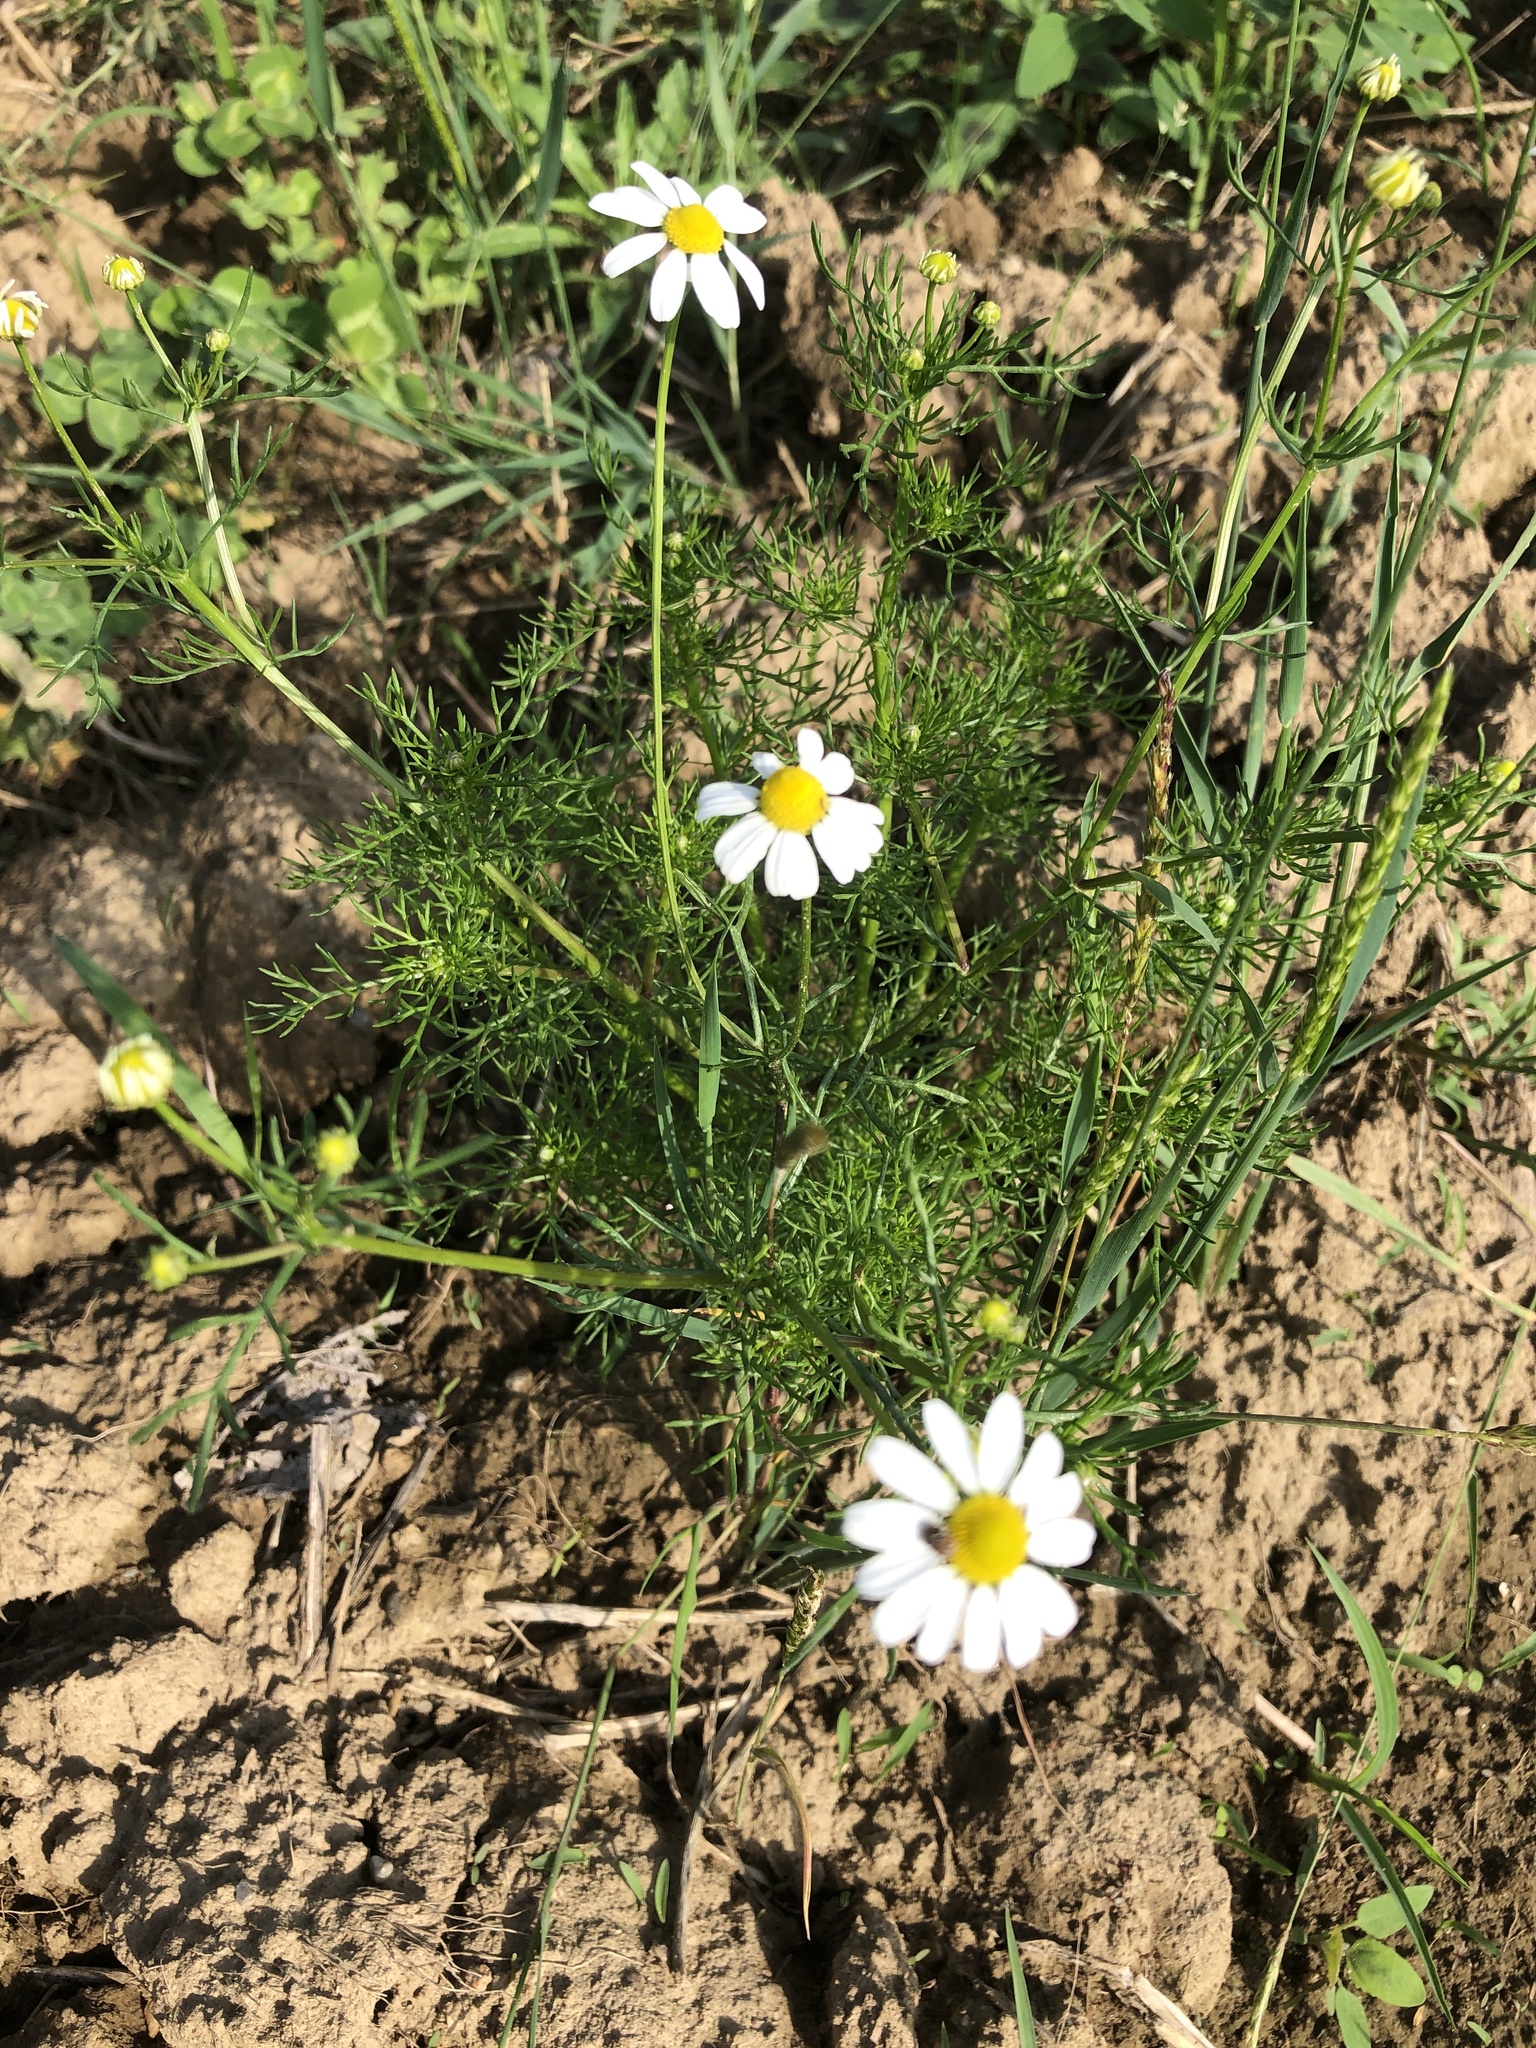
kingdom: Plantae
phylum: Tracheophyta
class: Magnoliopsida
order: Asterales
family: Asteraceae
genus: Matricaria
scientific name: Matricaria chamomilla
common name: Scented mayweed
